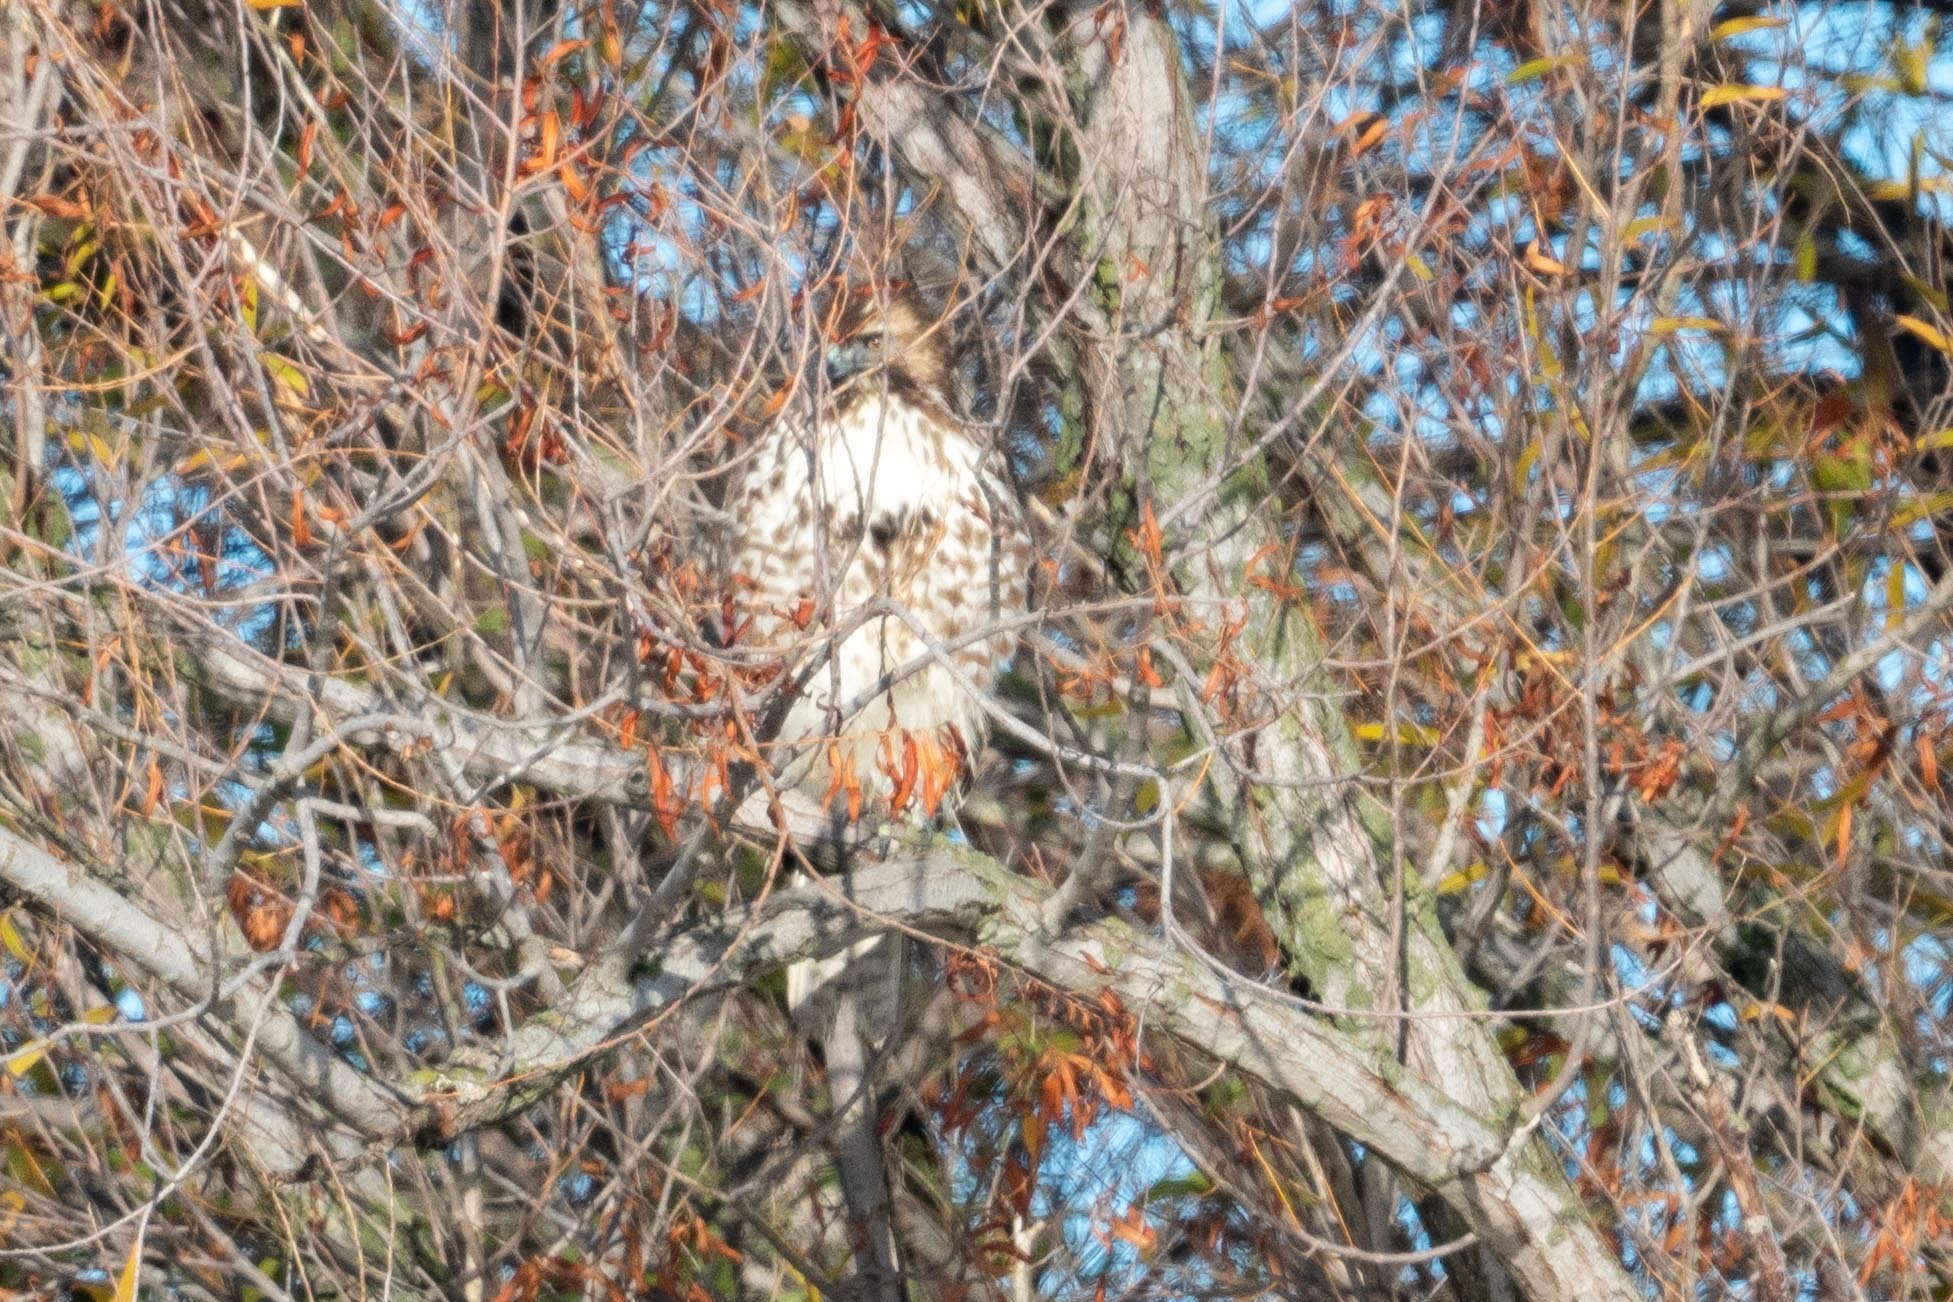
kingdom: Animalia
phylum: Chordata
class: Aves
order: Accipitriformes
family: Accipitridae
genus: Buteo
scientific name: Buteo jamaicensis
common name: Red-tailed hawk
